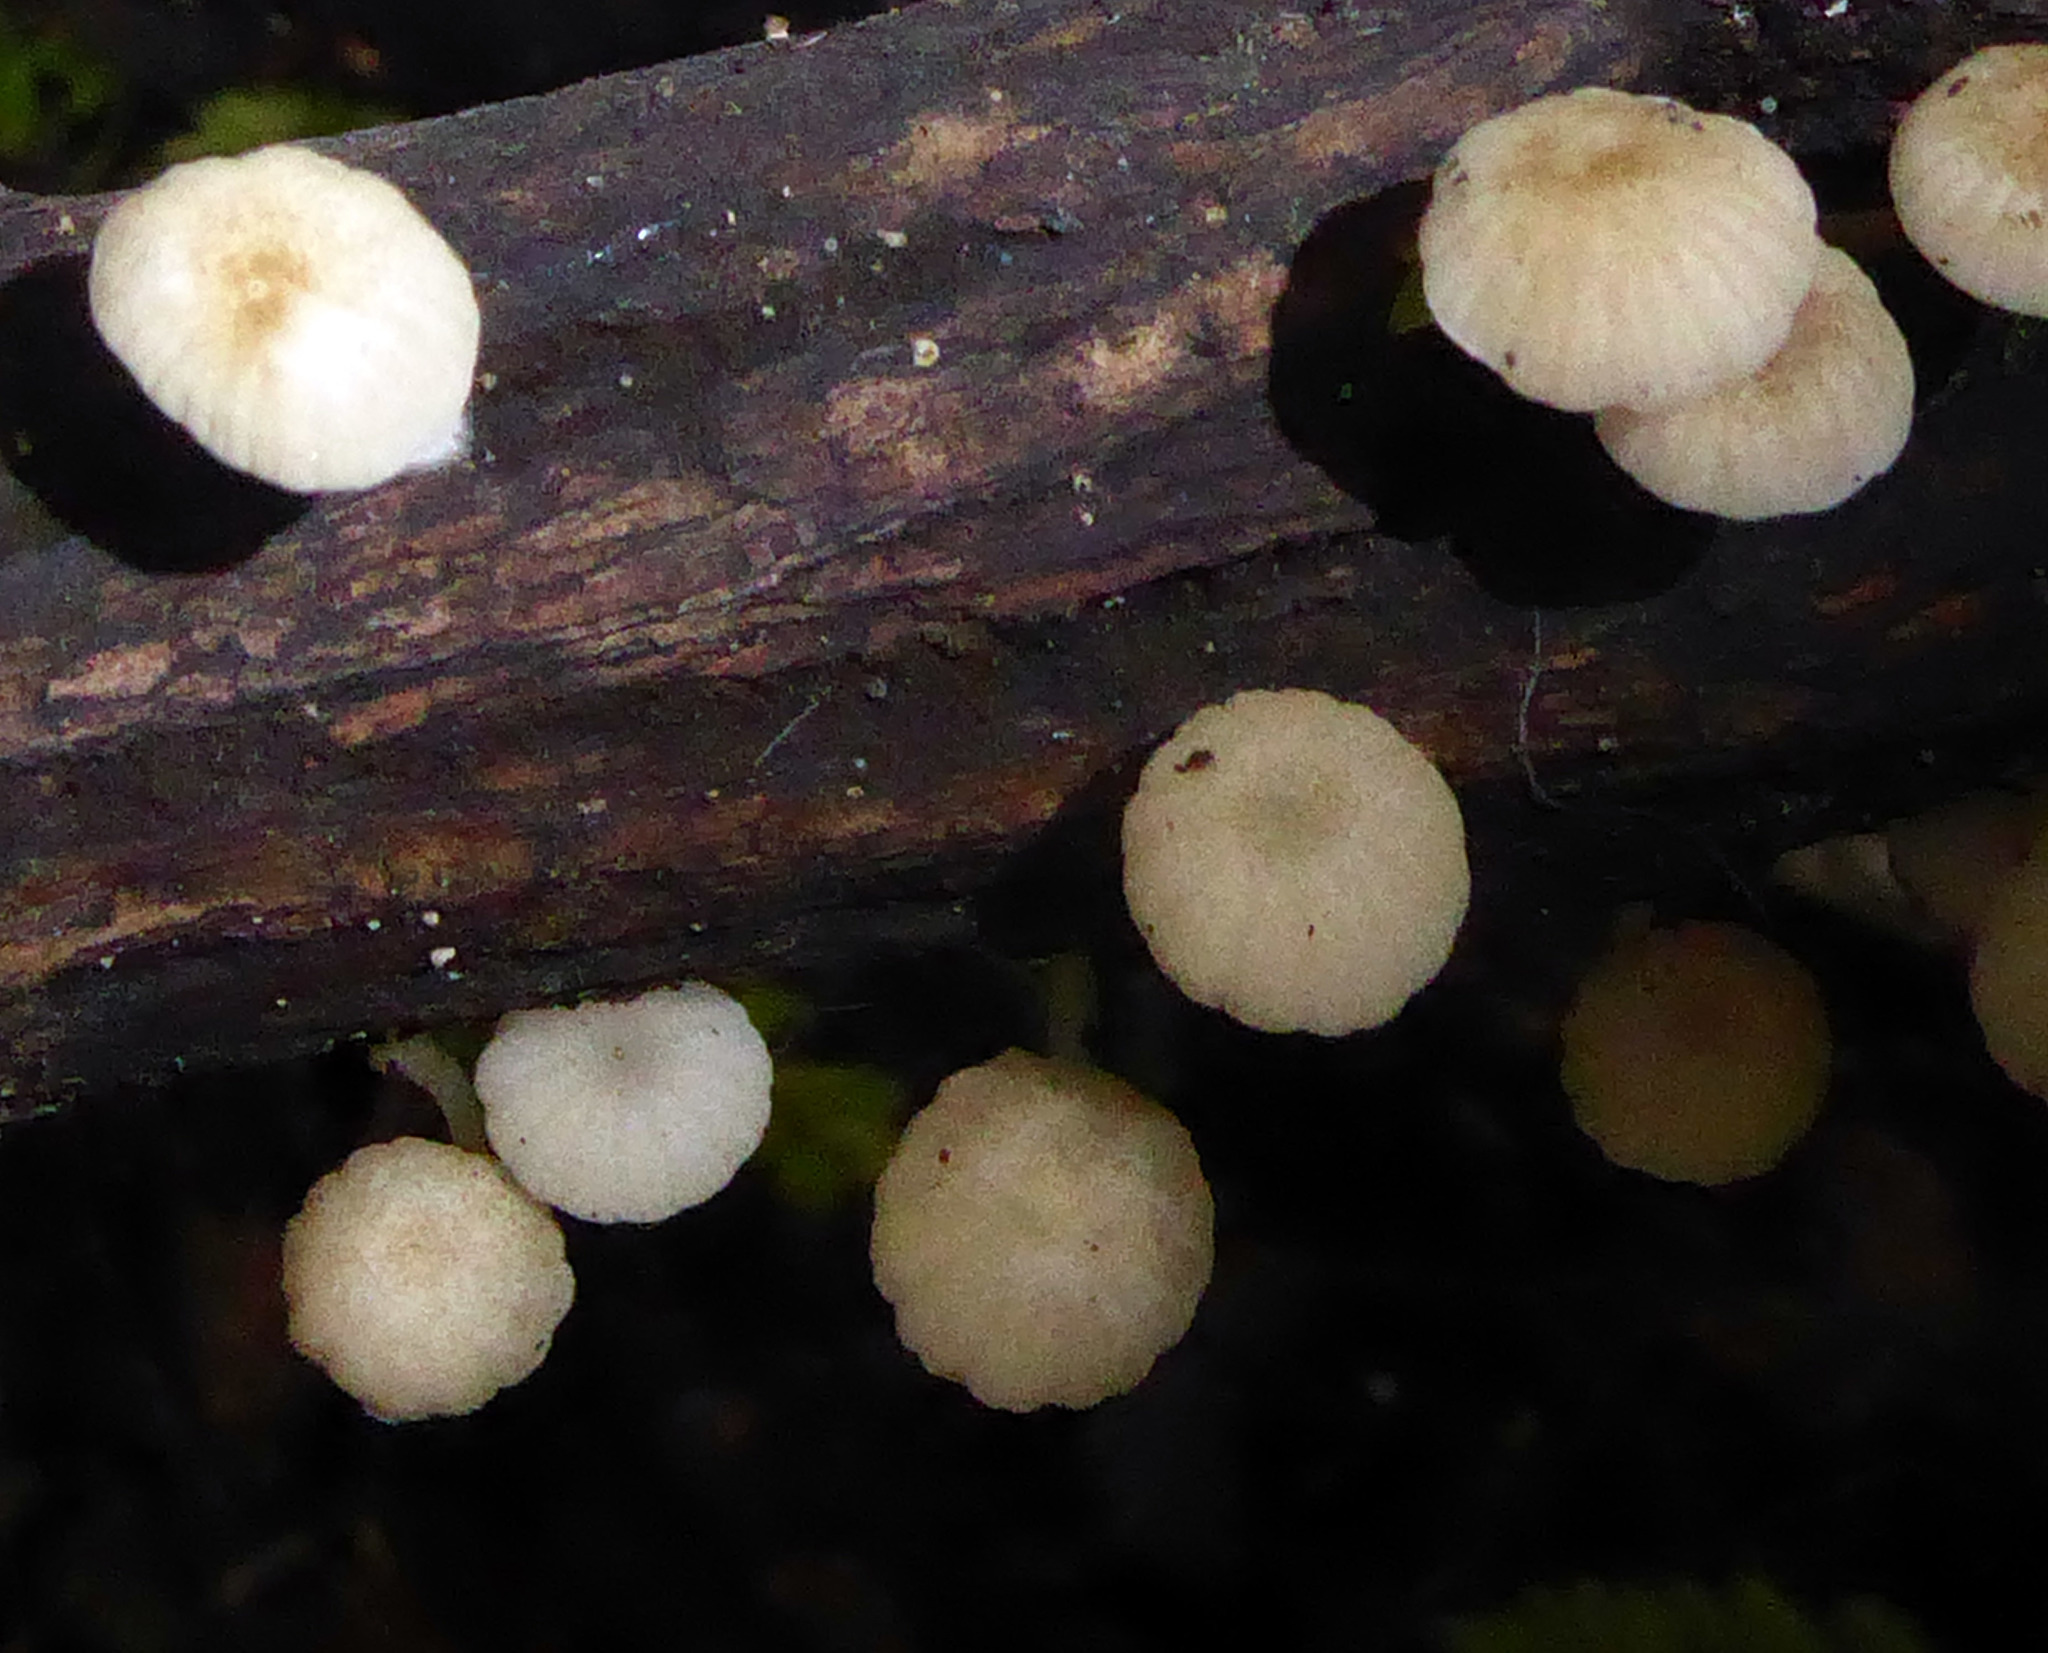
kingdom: Fungi
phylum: Basidiomycota
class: Agaricomycetes
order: Agaricales
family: Mycenaceae
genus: Roridomyces
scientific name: Roridomyces austrororidus
